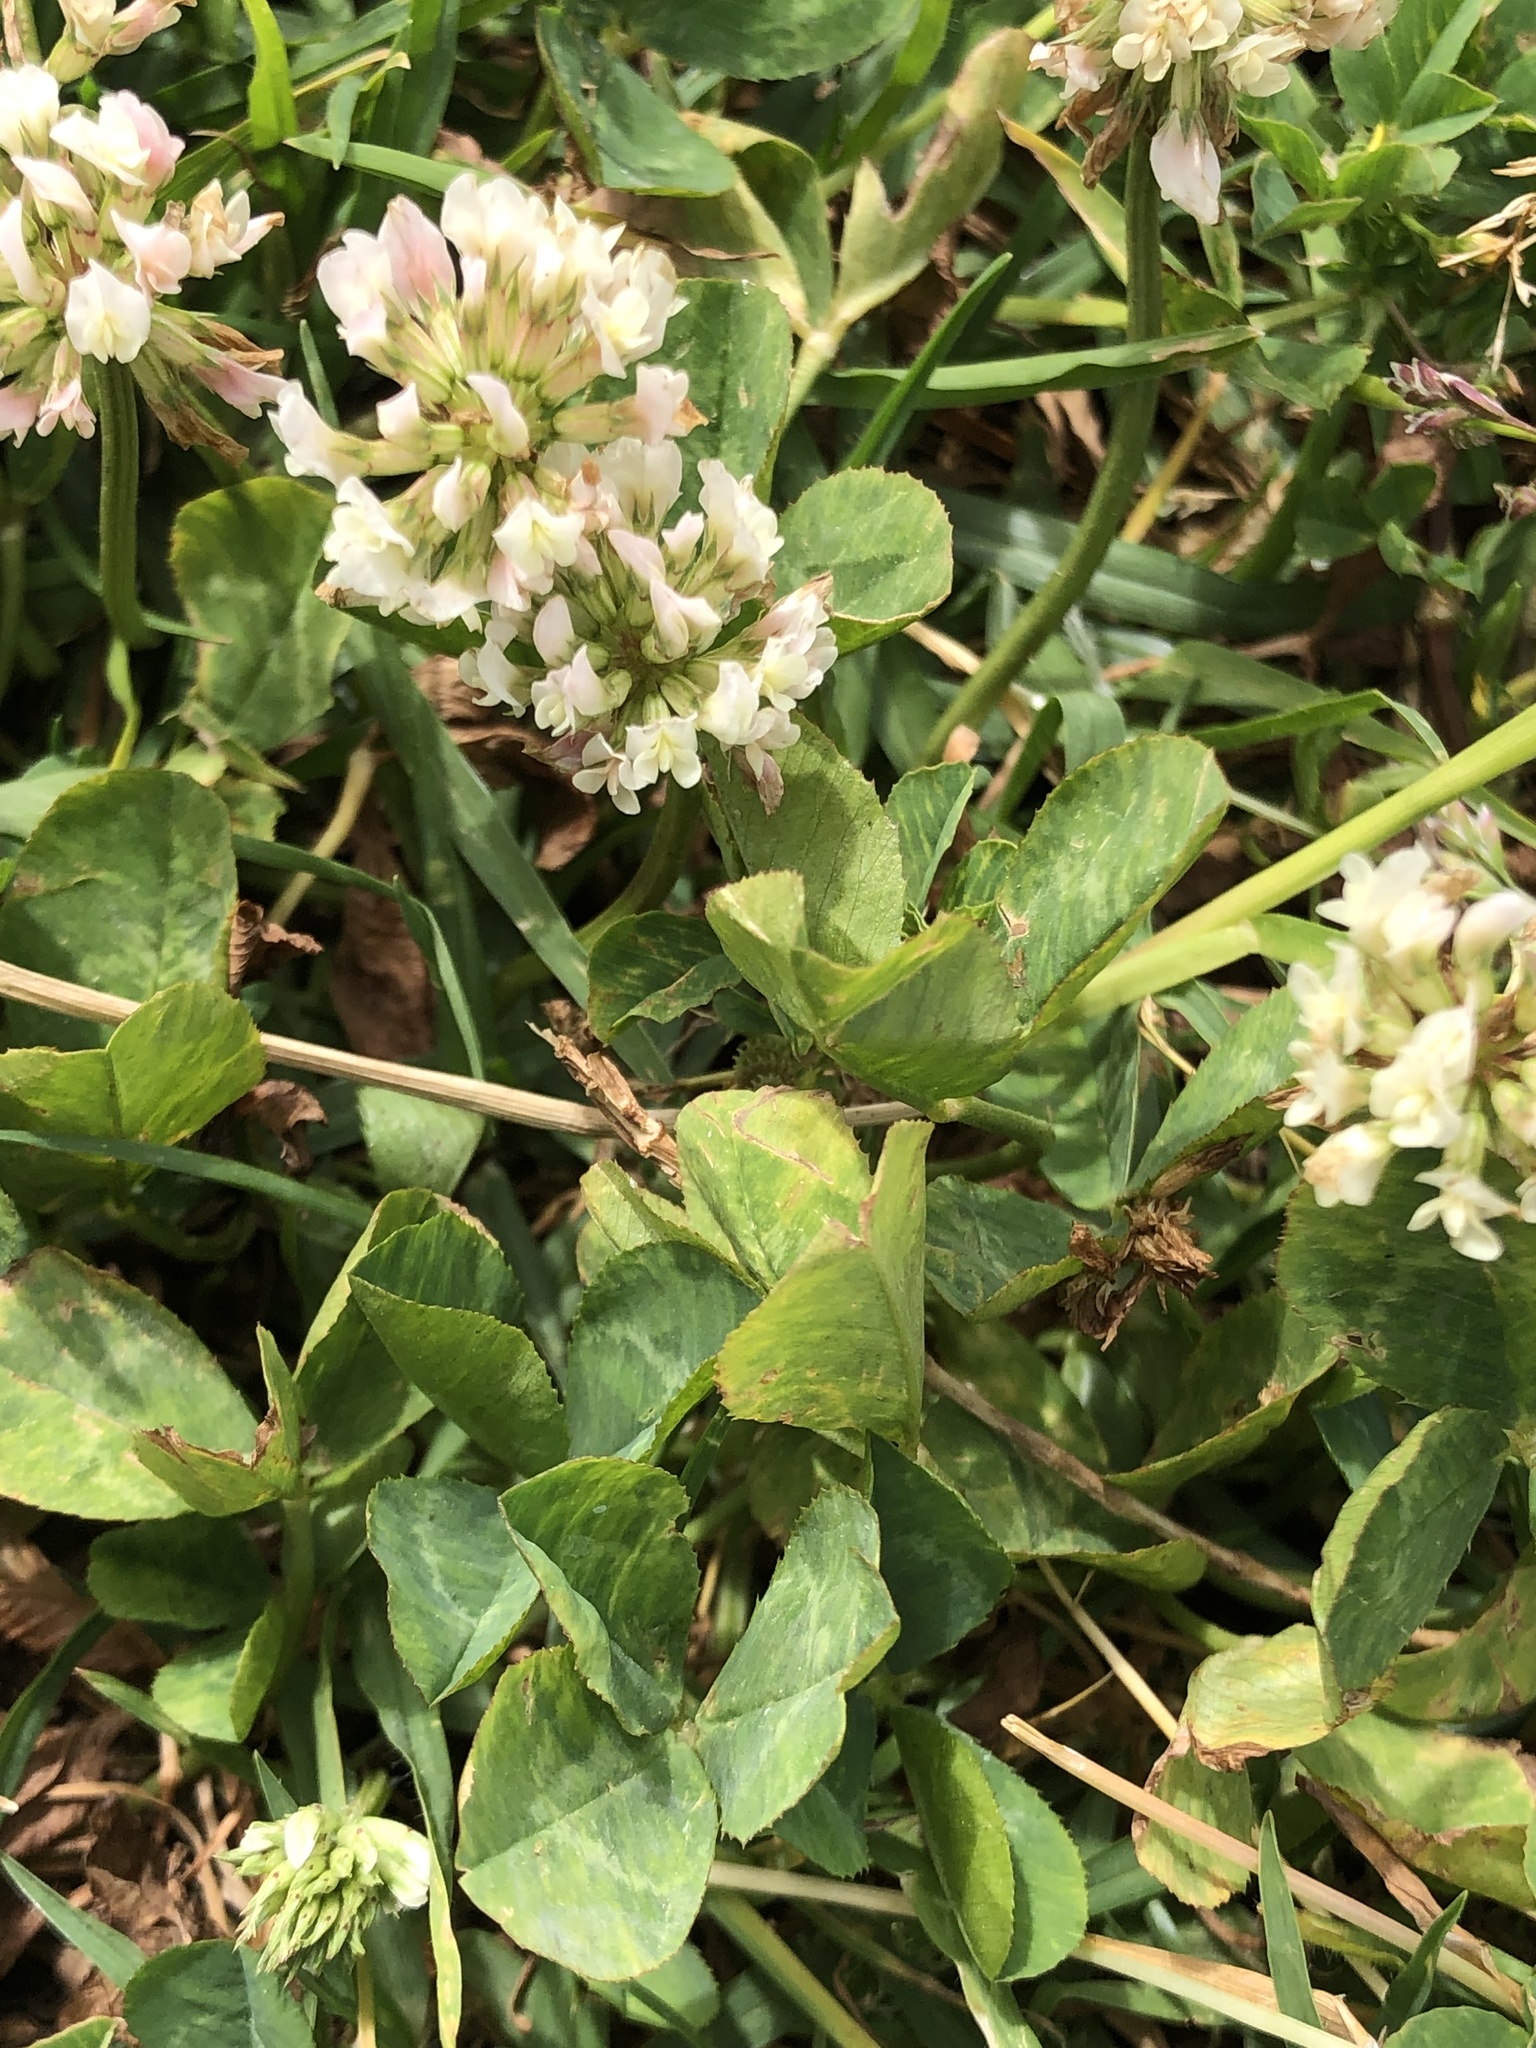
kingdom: Plantae
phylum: Tracheophyta
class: Magnoliopsida
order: Fabales
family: Fabaceae
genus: Trifolium
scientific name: Trifolium repens
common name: White clover
